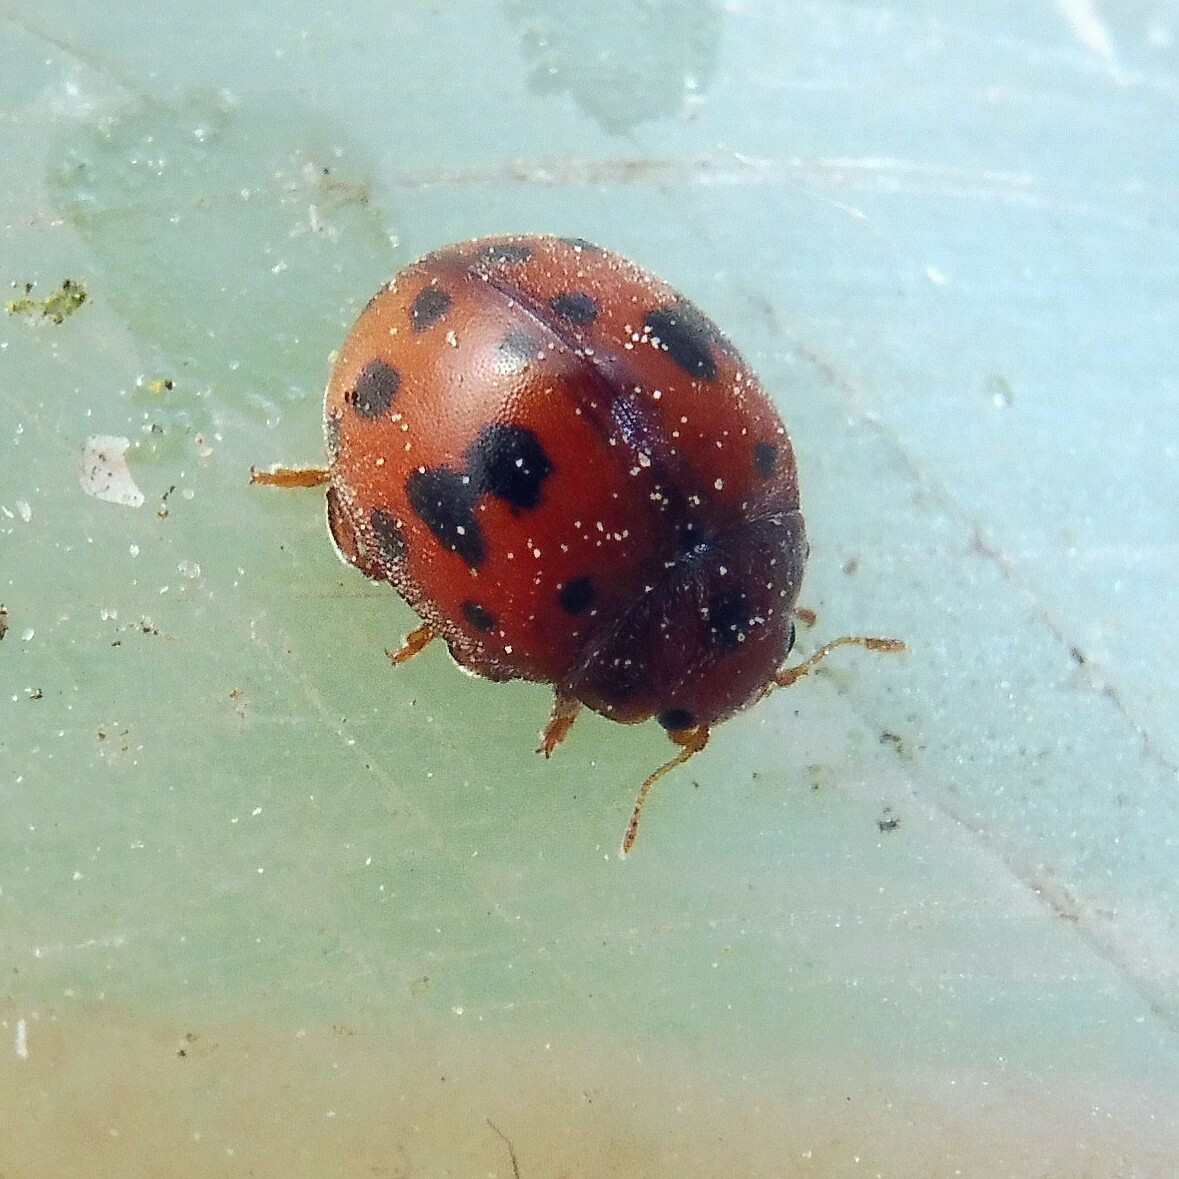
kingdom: Animalia
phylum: Arthropoda
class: Insecta
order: Coleoptera
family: Coccinellidae
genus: Subcoccinella
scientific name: Subcoccinella vigintiquatuorpunctata
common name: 24-spot ladybird
